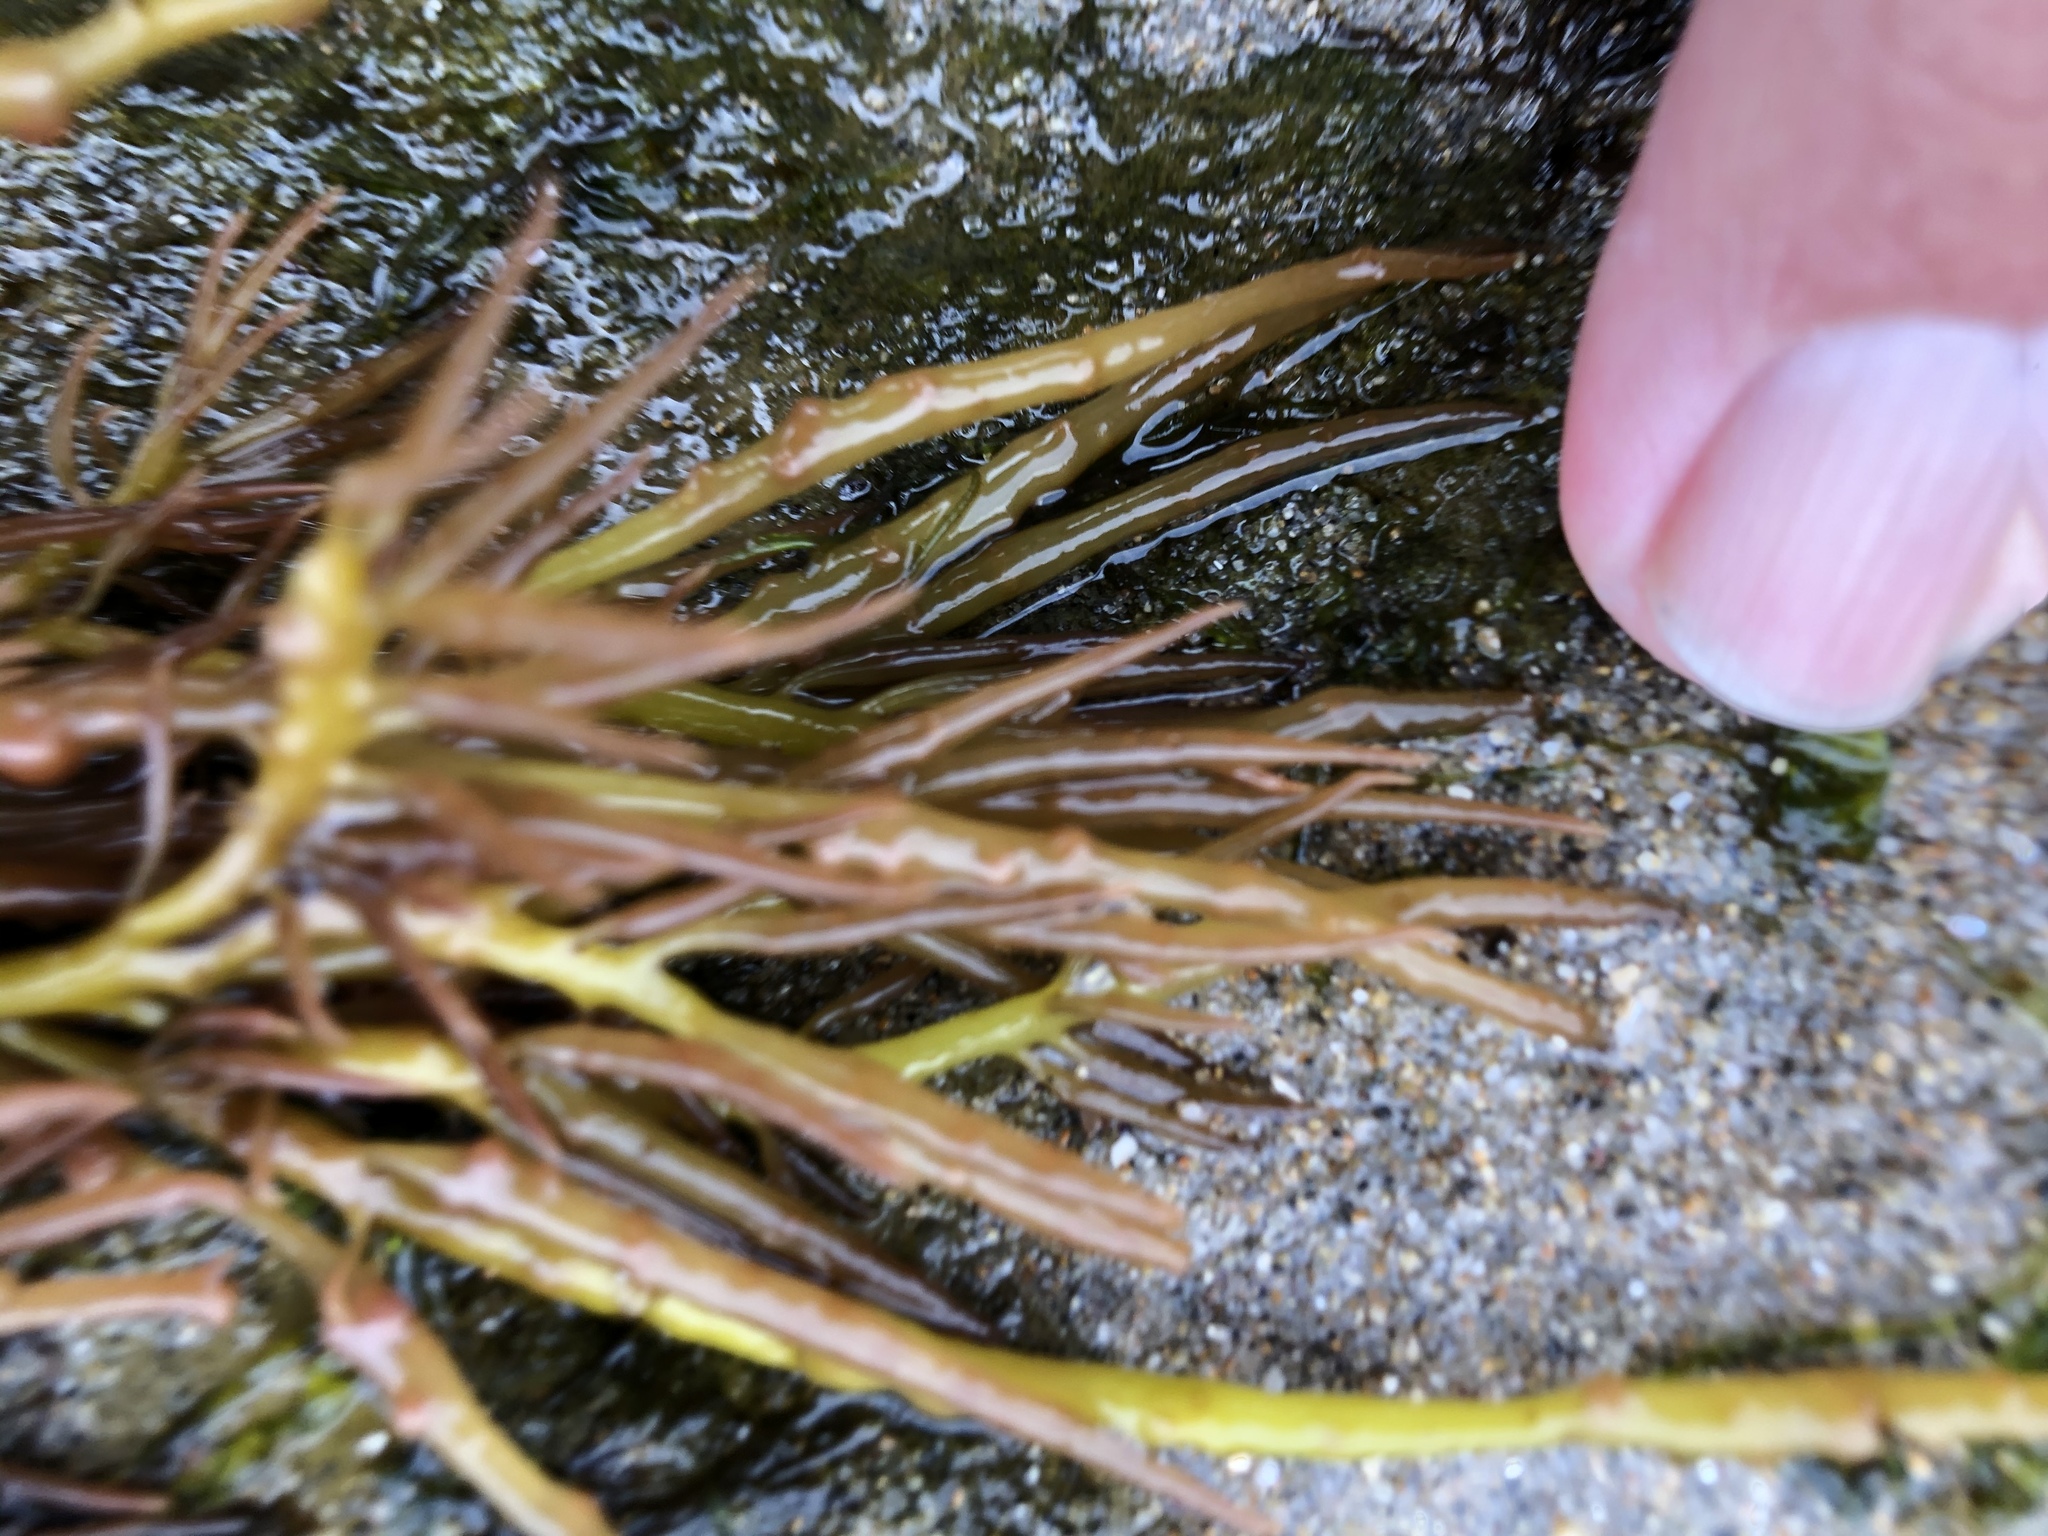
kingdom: Plantae
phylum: Rhodophyta
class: Florideophyceae
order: Gigartinales
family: Solieriaceae
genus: Sarcodiotheca
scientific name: Sarcodiotheca gaudichaudii
